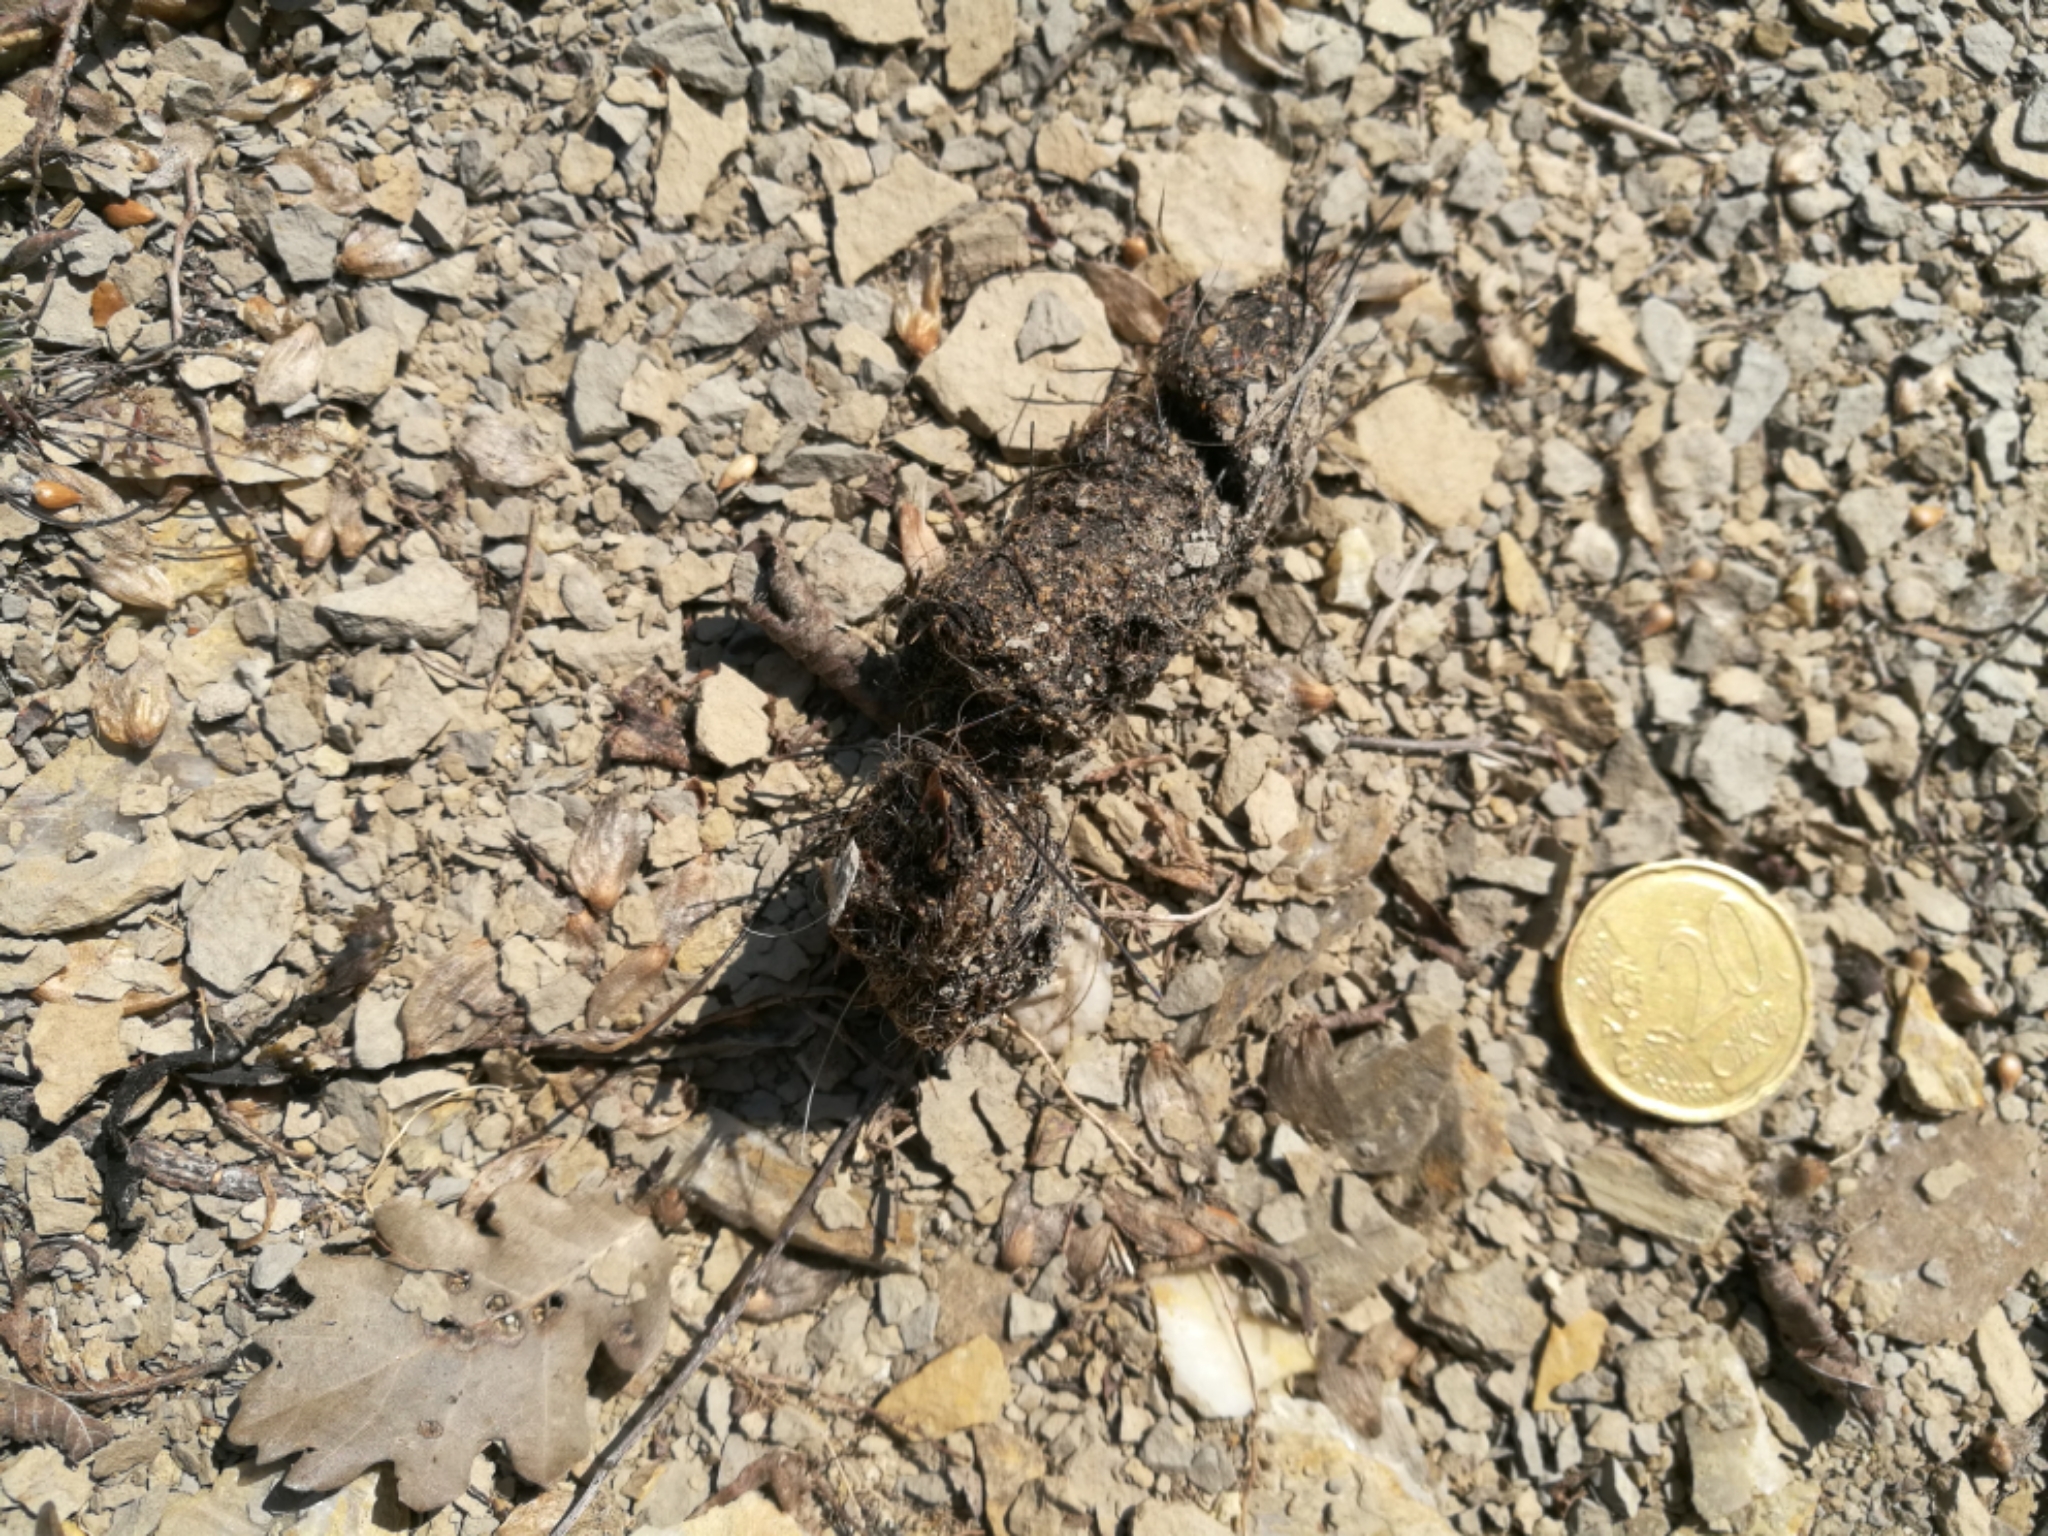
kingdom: Animalia
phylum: Chordata
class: Mammalia
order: Carnivora
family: Canidae
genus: Canis
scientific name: Canis lupus
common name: Gray wolf
